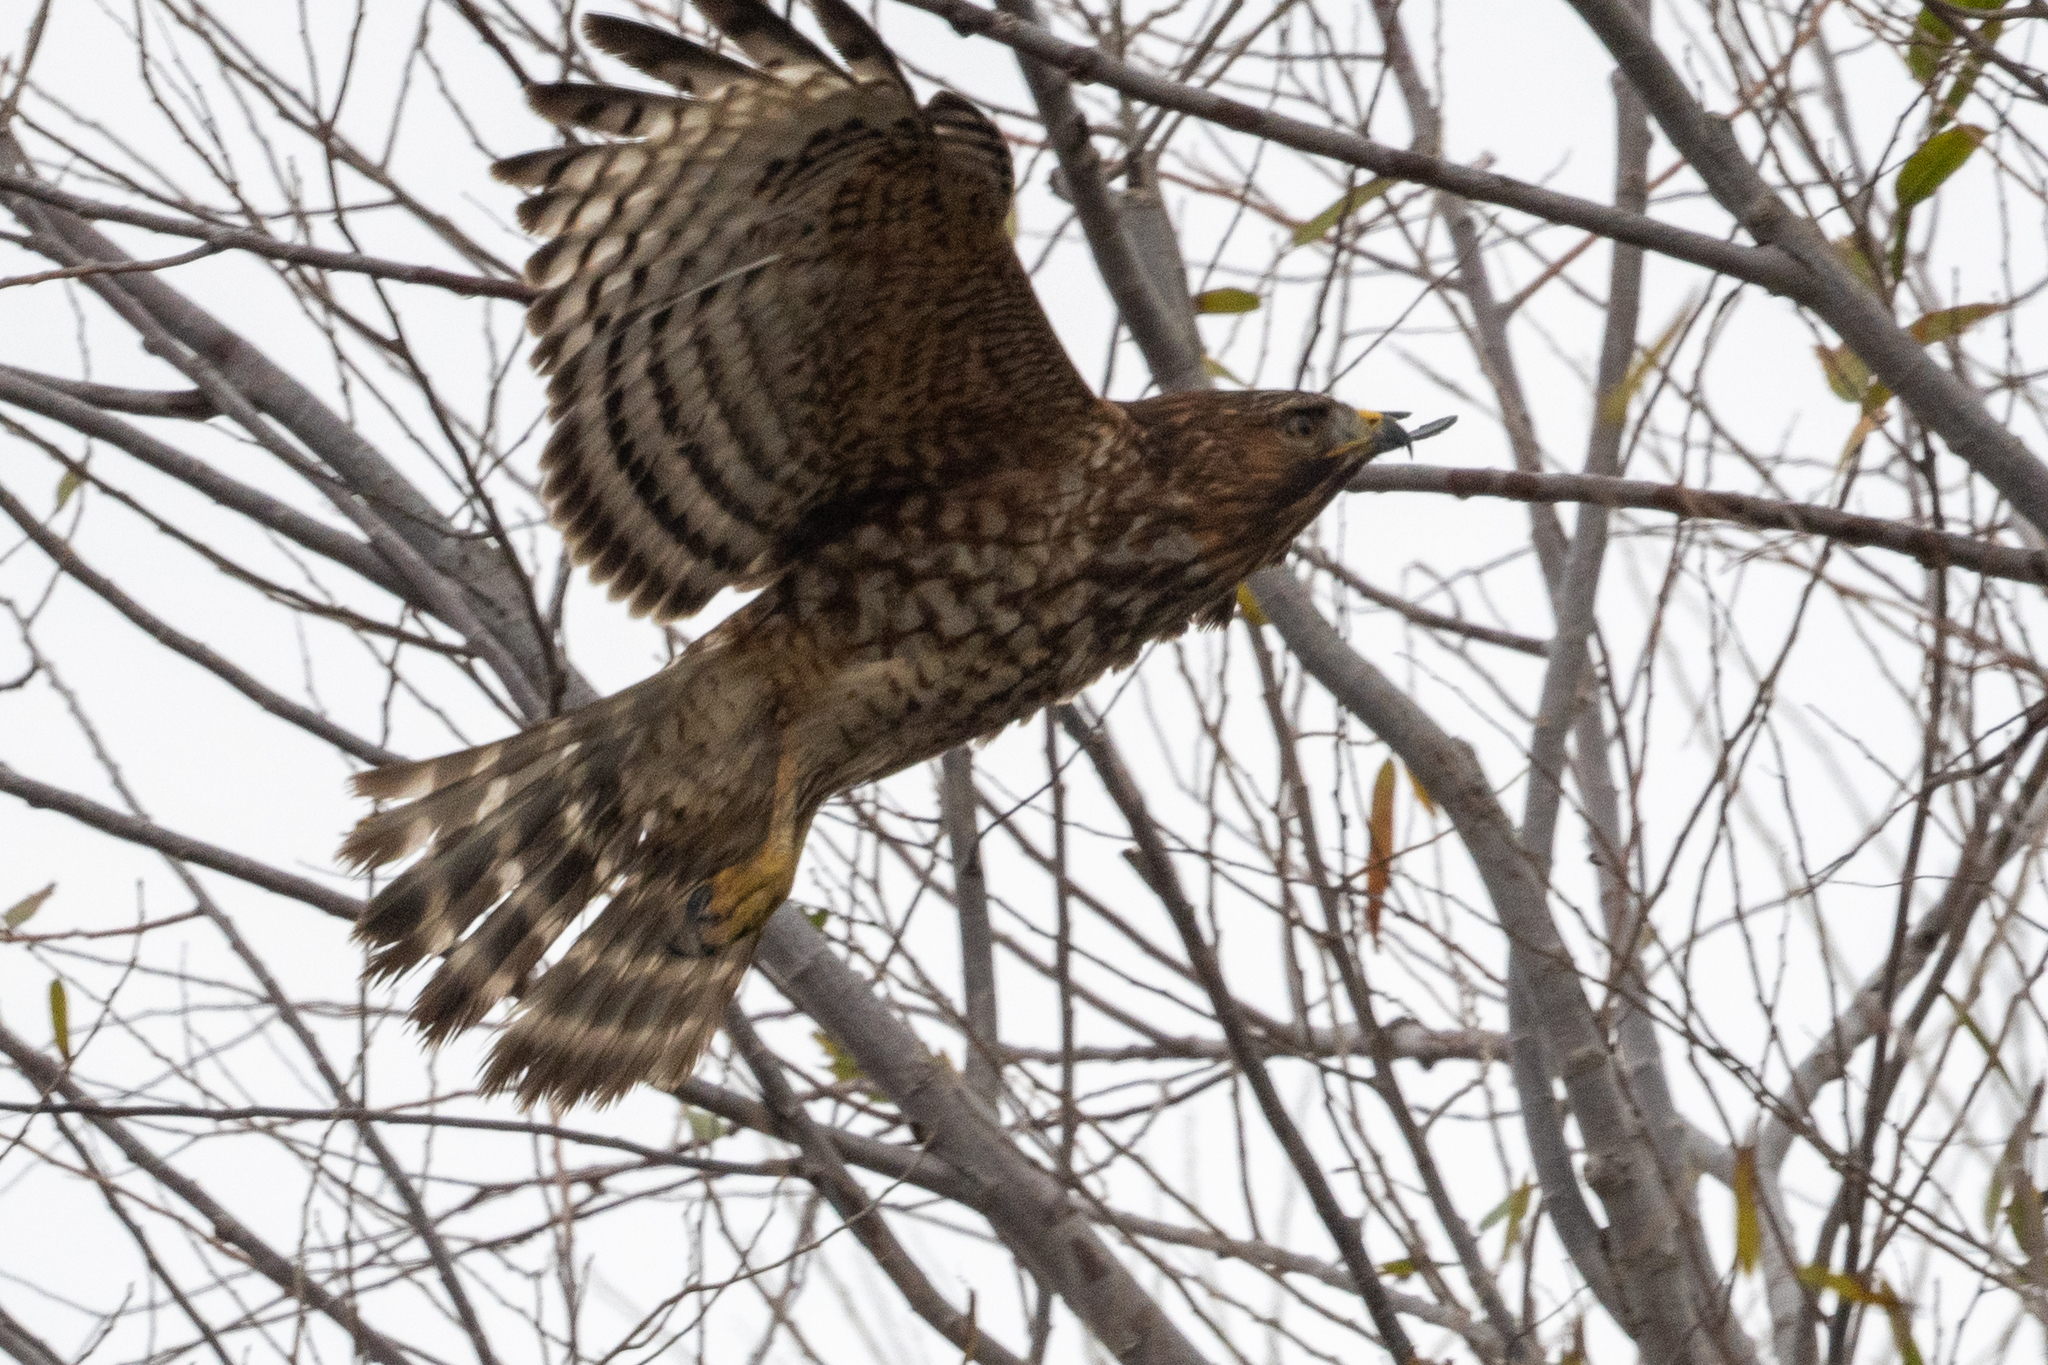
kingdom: Animalia
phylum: Chordata
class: Aves
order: Accipitriformes
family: Accipitridae
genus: Buteo
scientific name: Buteo lineatus
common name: Red-shouldered hawk
